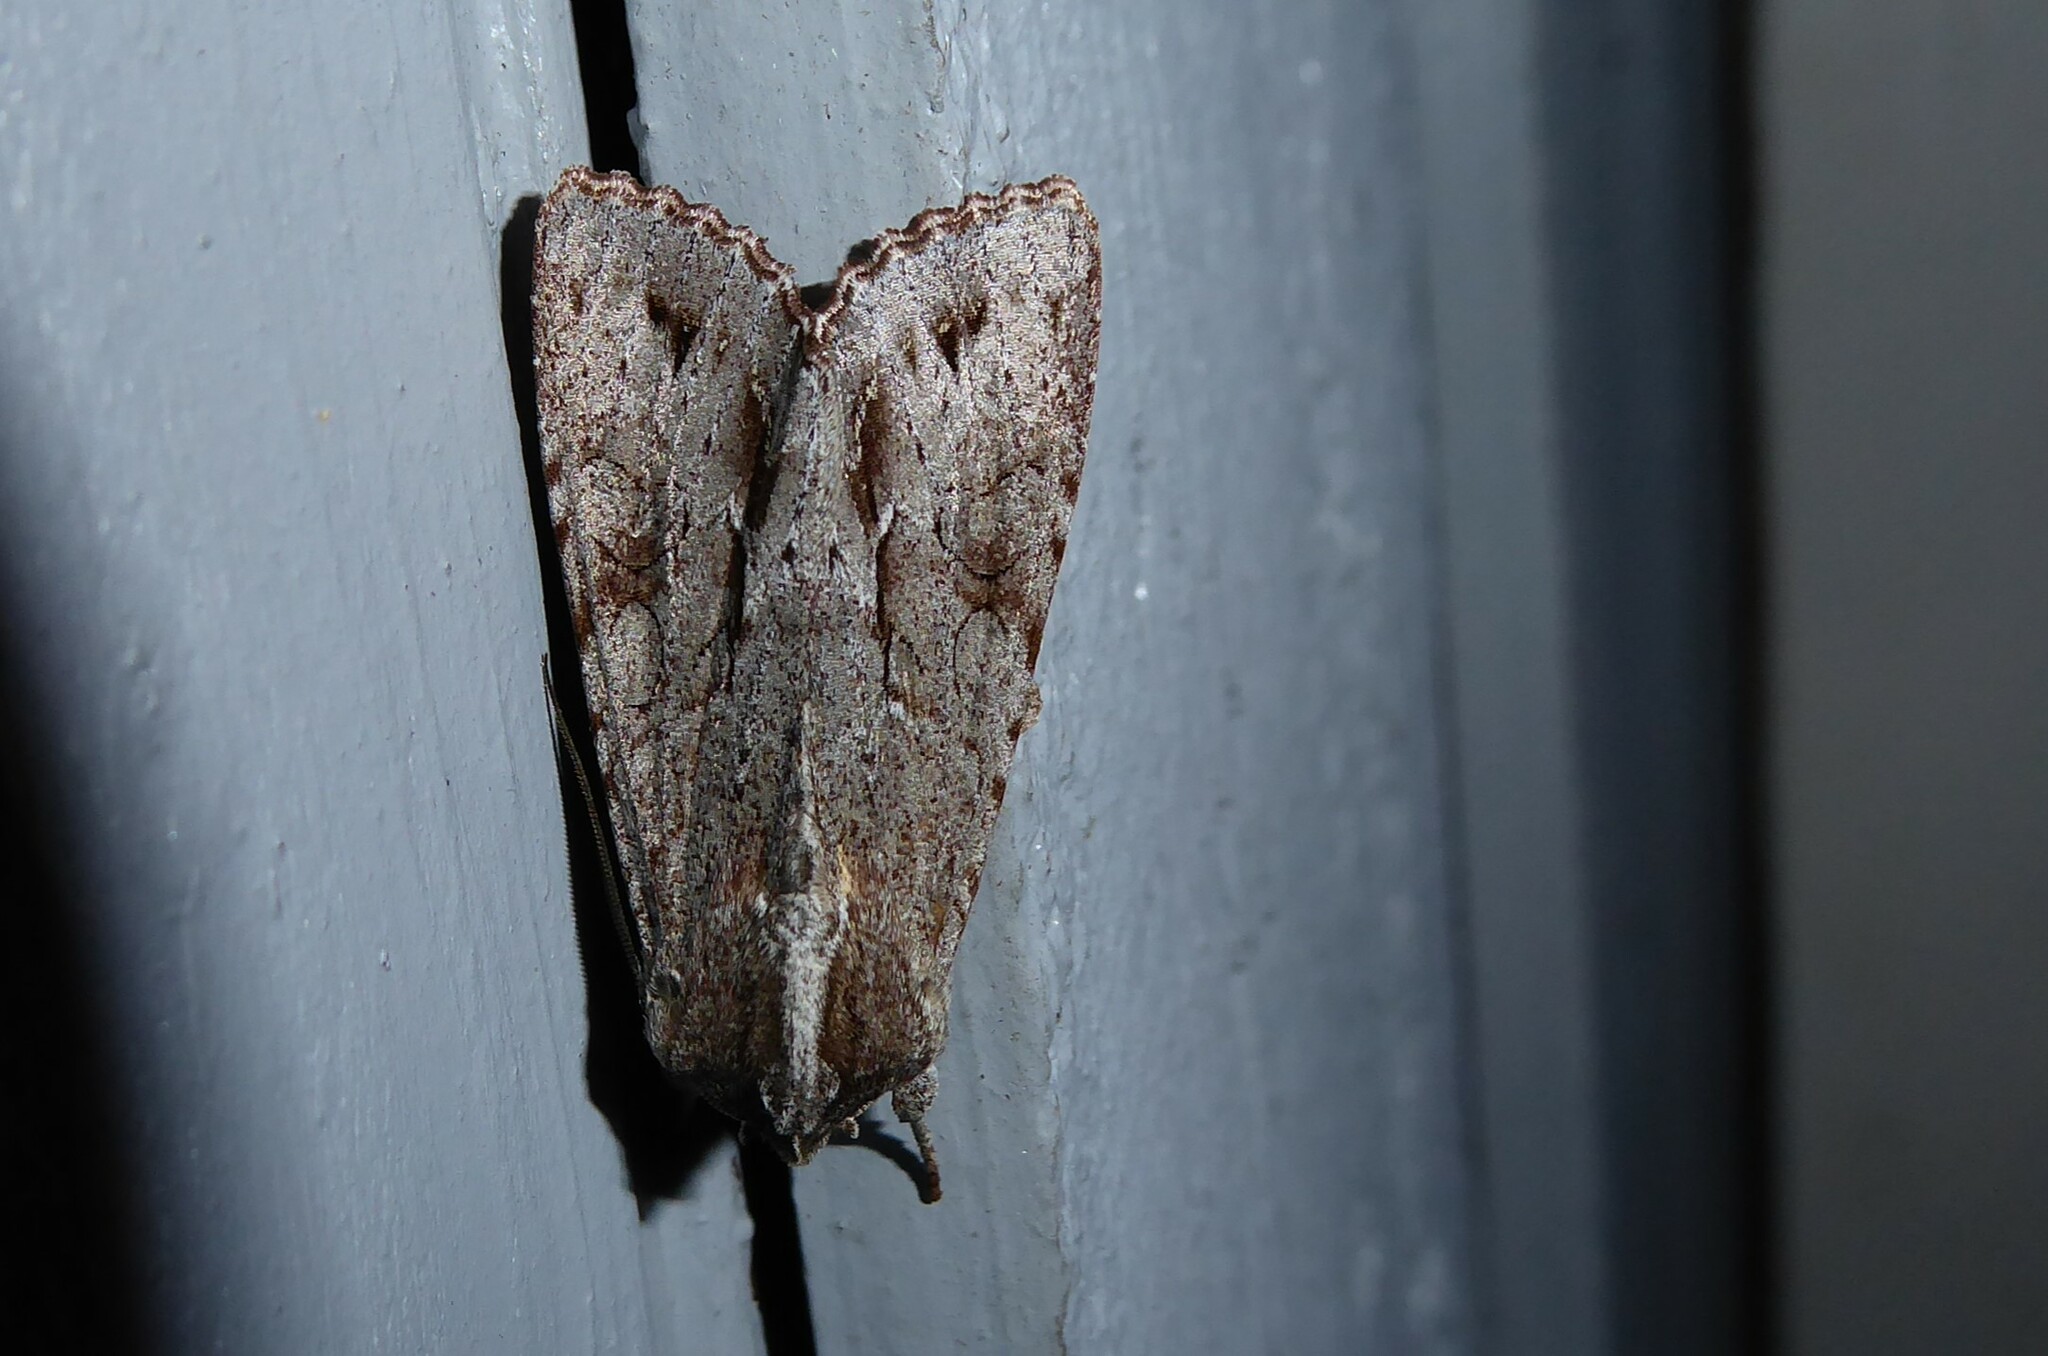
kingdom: Animalia
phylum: Arthropoda
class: Insecta
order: Lepidoptera
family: Noctuidae
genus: Ichneutica
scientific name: Ichneutica
